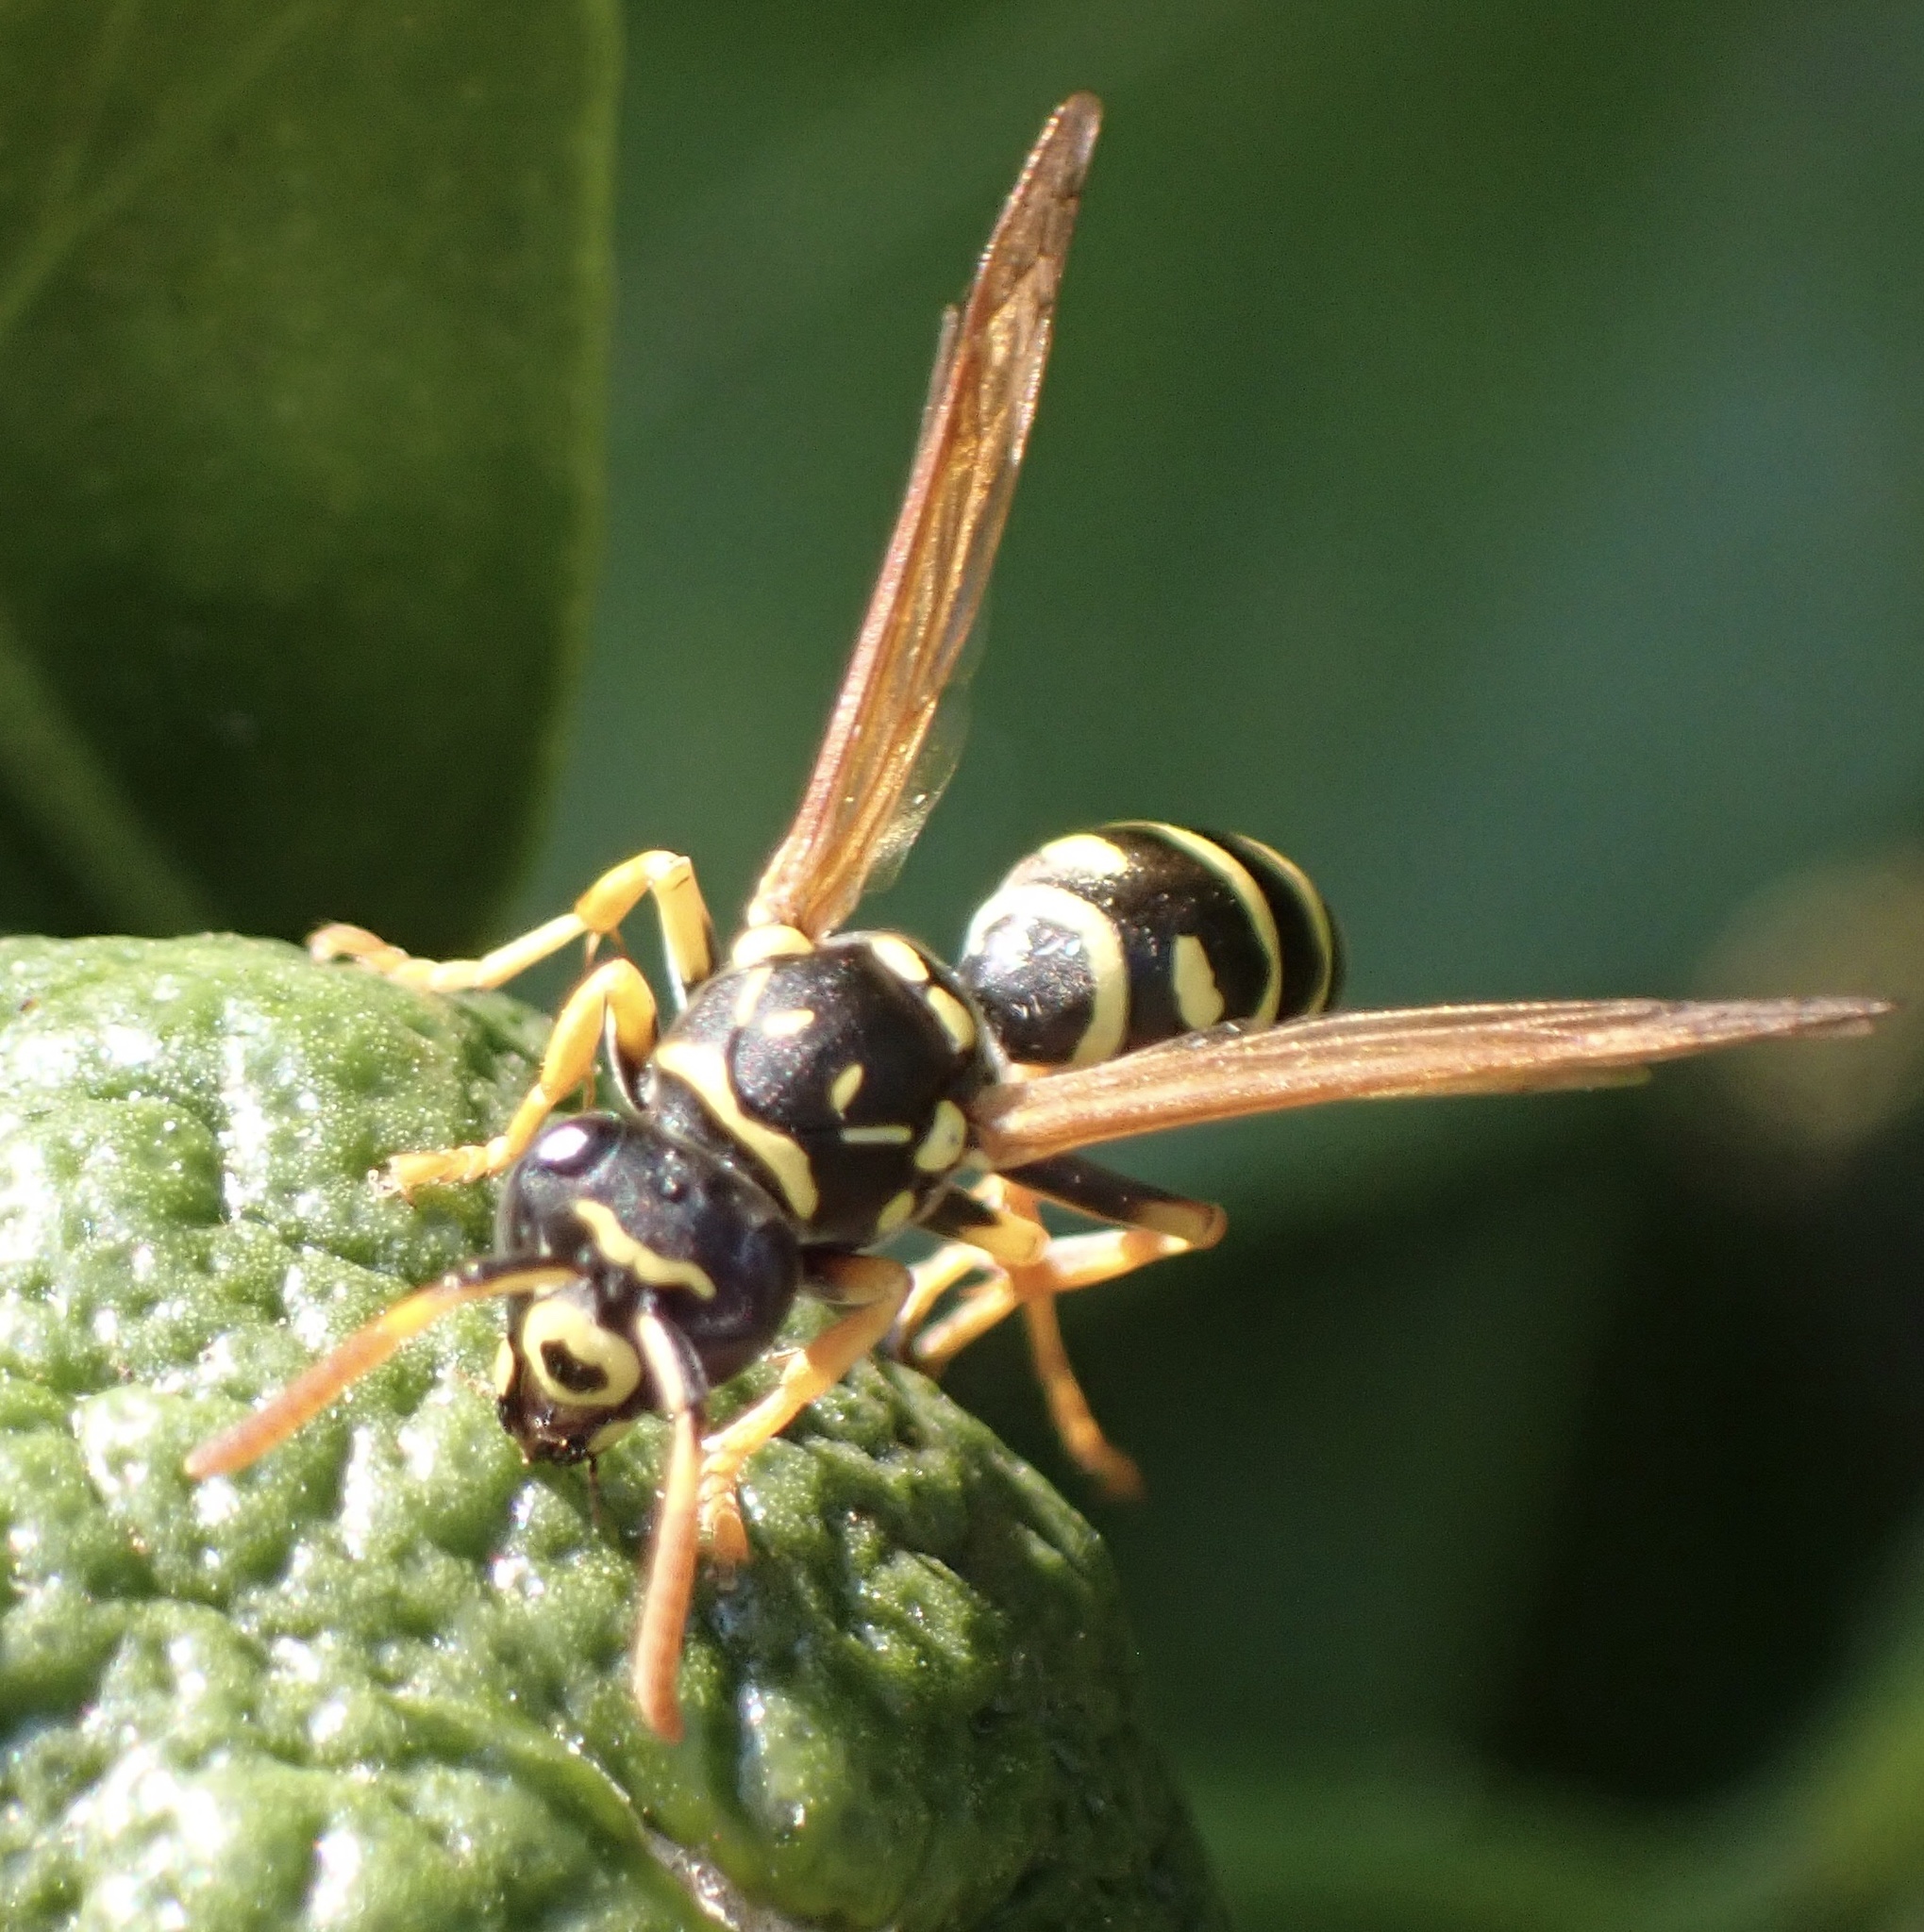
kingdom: Animalia
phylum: Arthropoda
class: Insecta
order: Hymenoptera
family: Eumenidae
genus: Polistes
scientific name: Polistes gallicus
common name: Paper wasp
